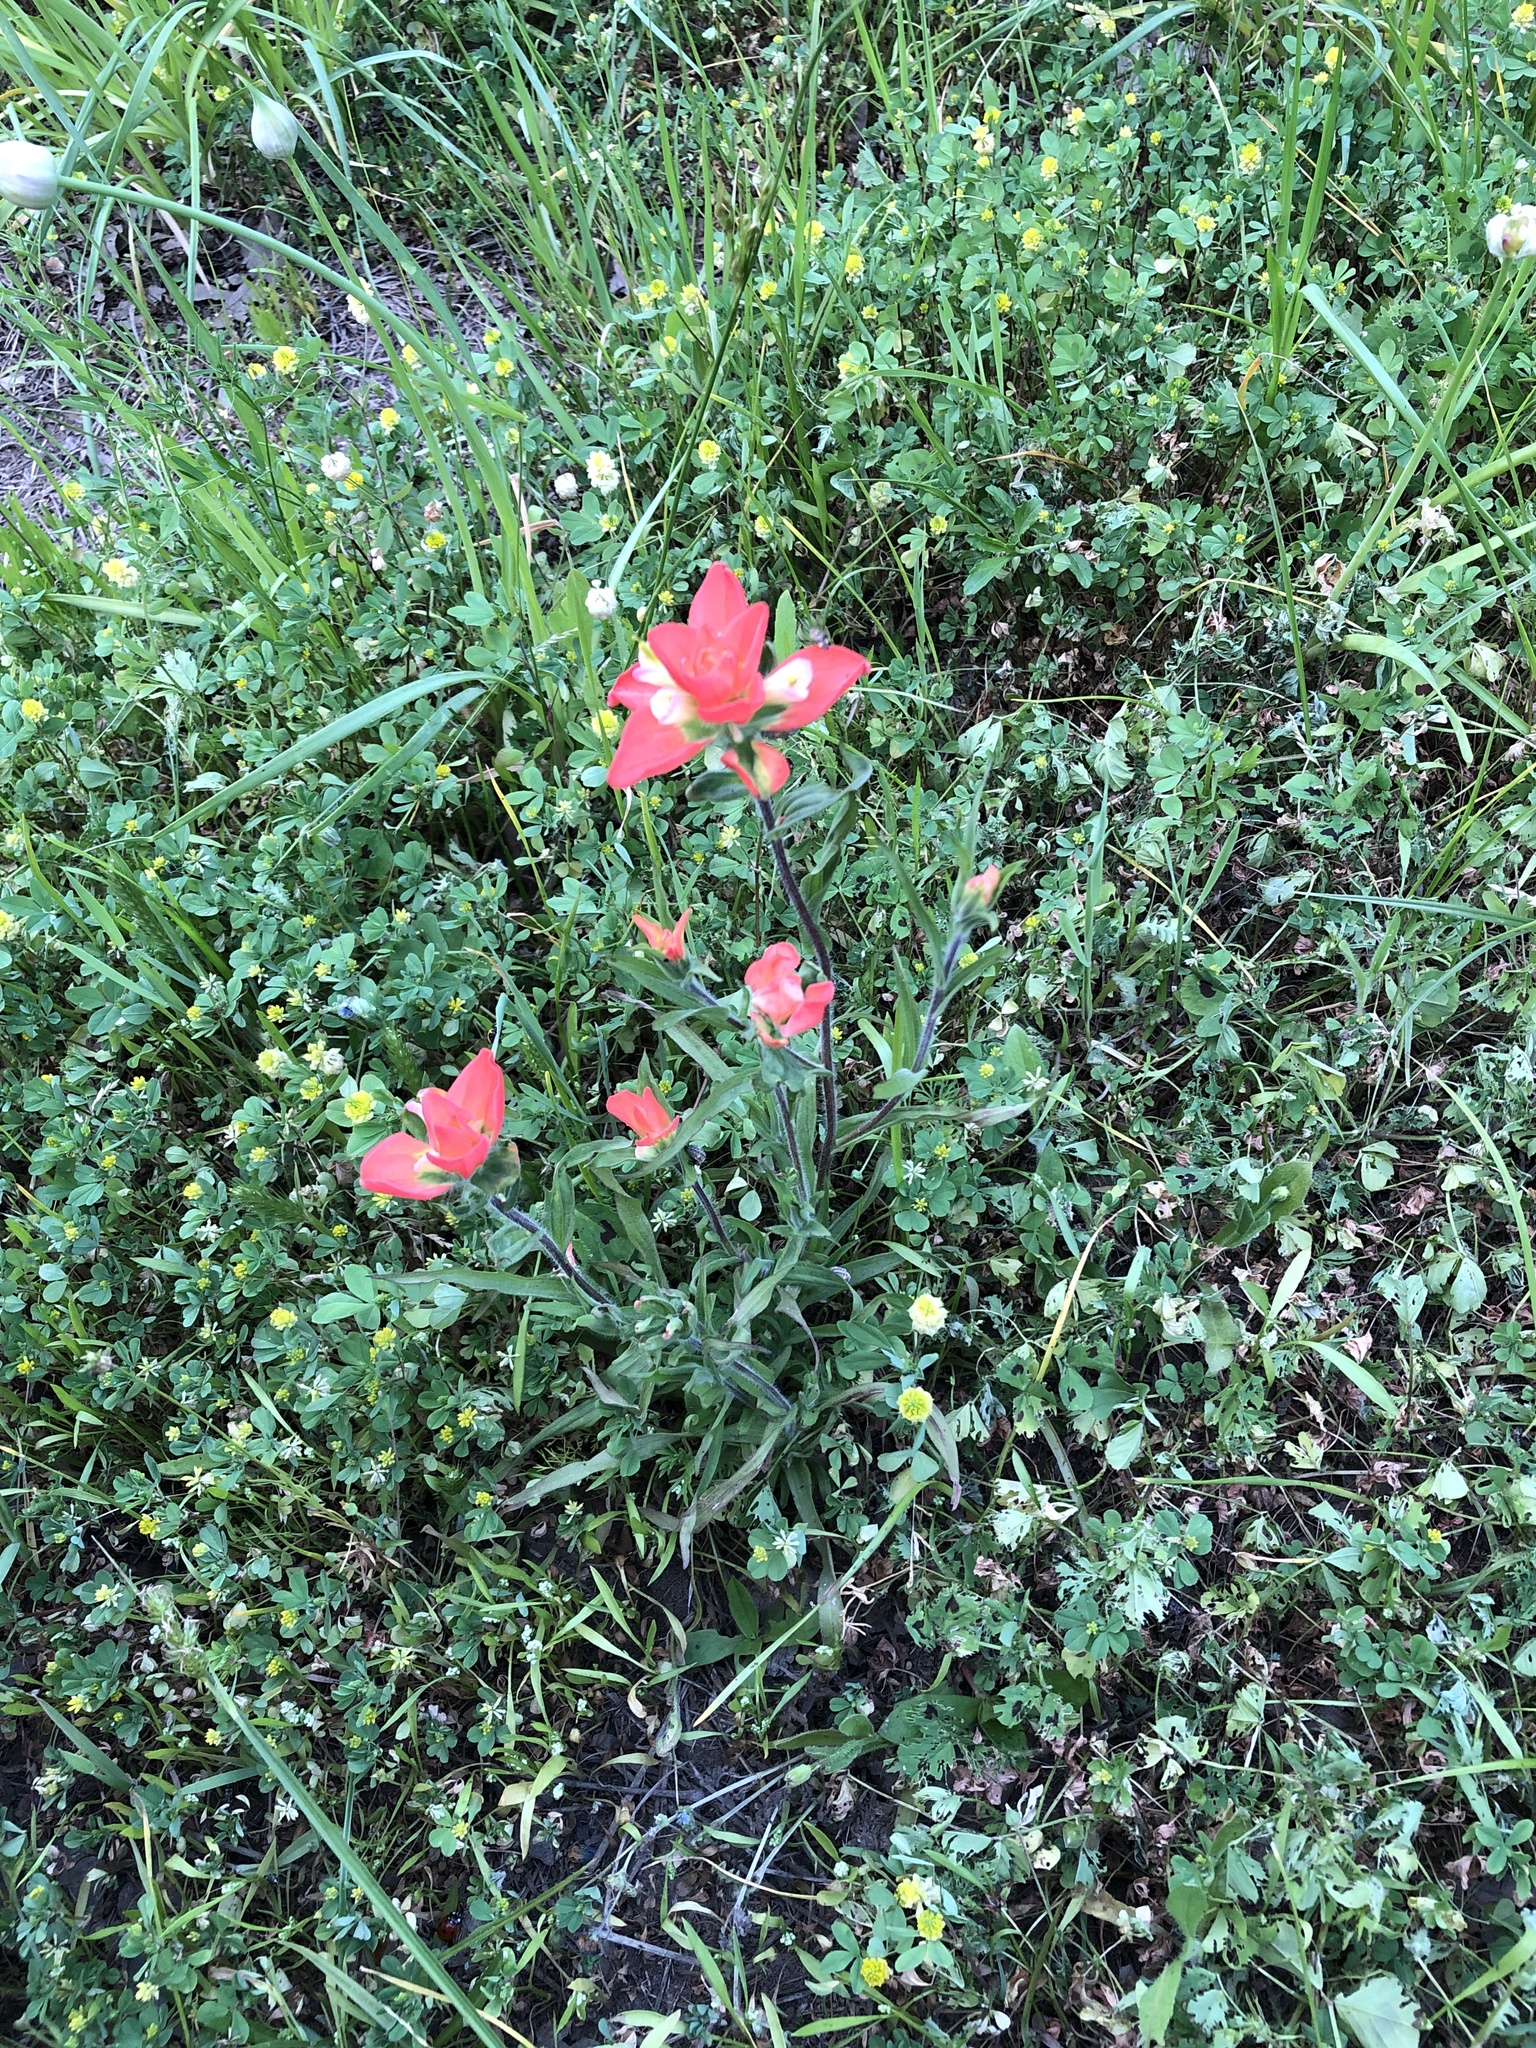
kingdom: Plantae
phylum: Tracheophyta
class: Magnoliopsida
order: Lamiales
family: Orobanchaceae
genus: Castilleja
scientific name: Castilleja indivisa
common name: Texas paintbrush
